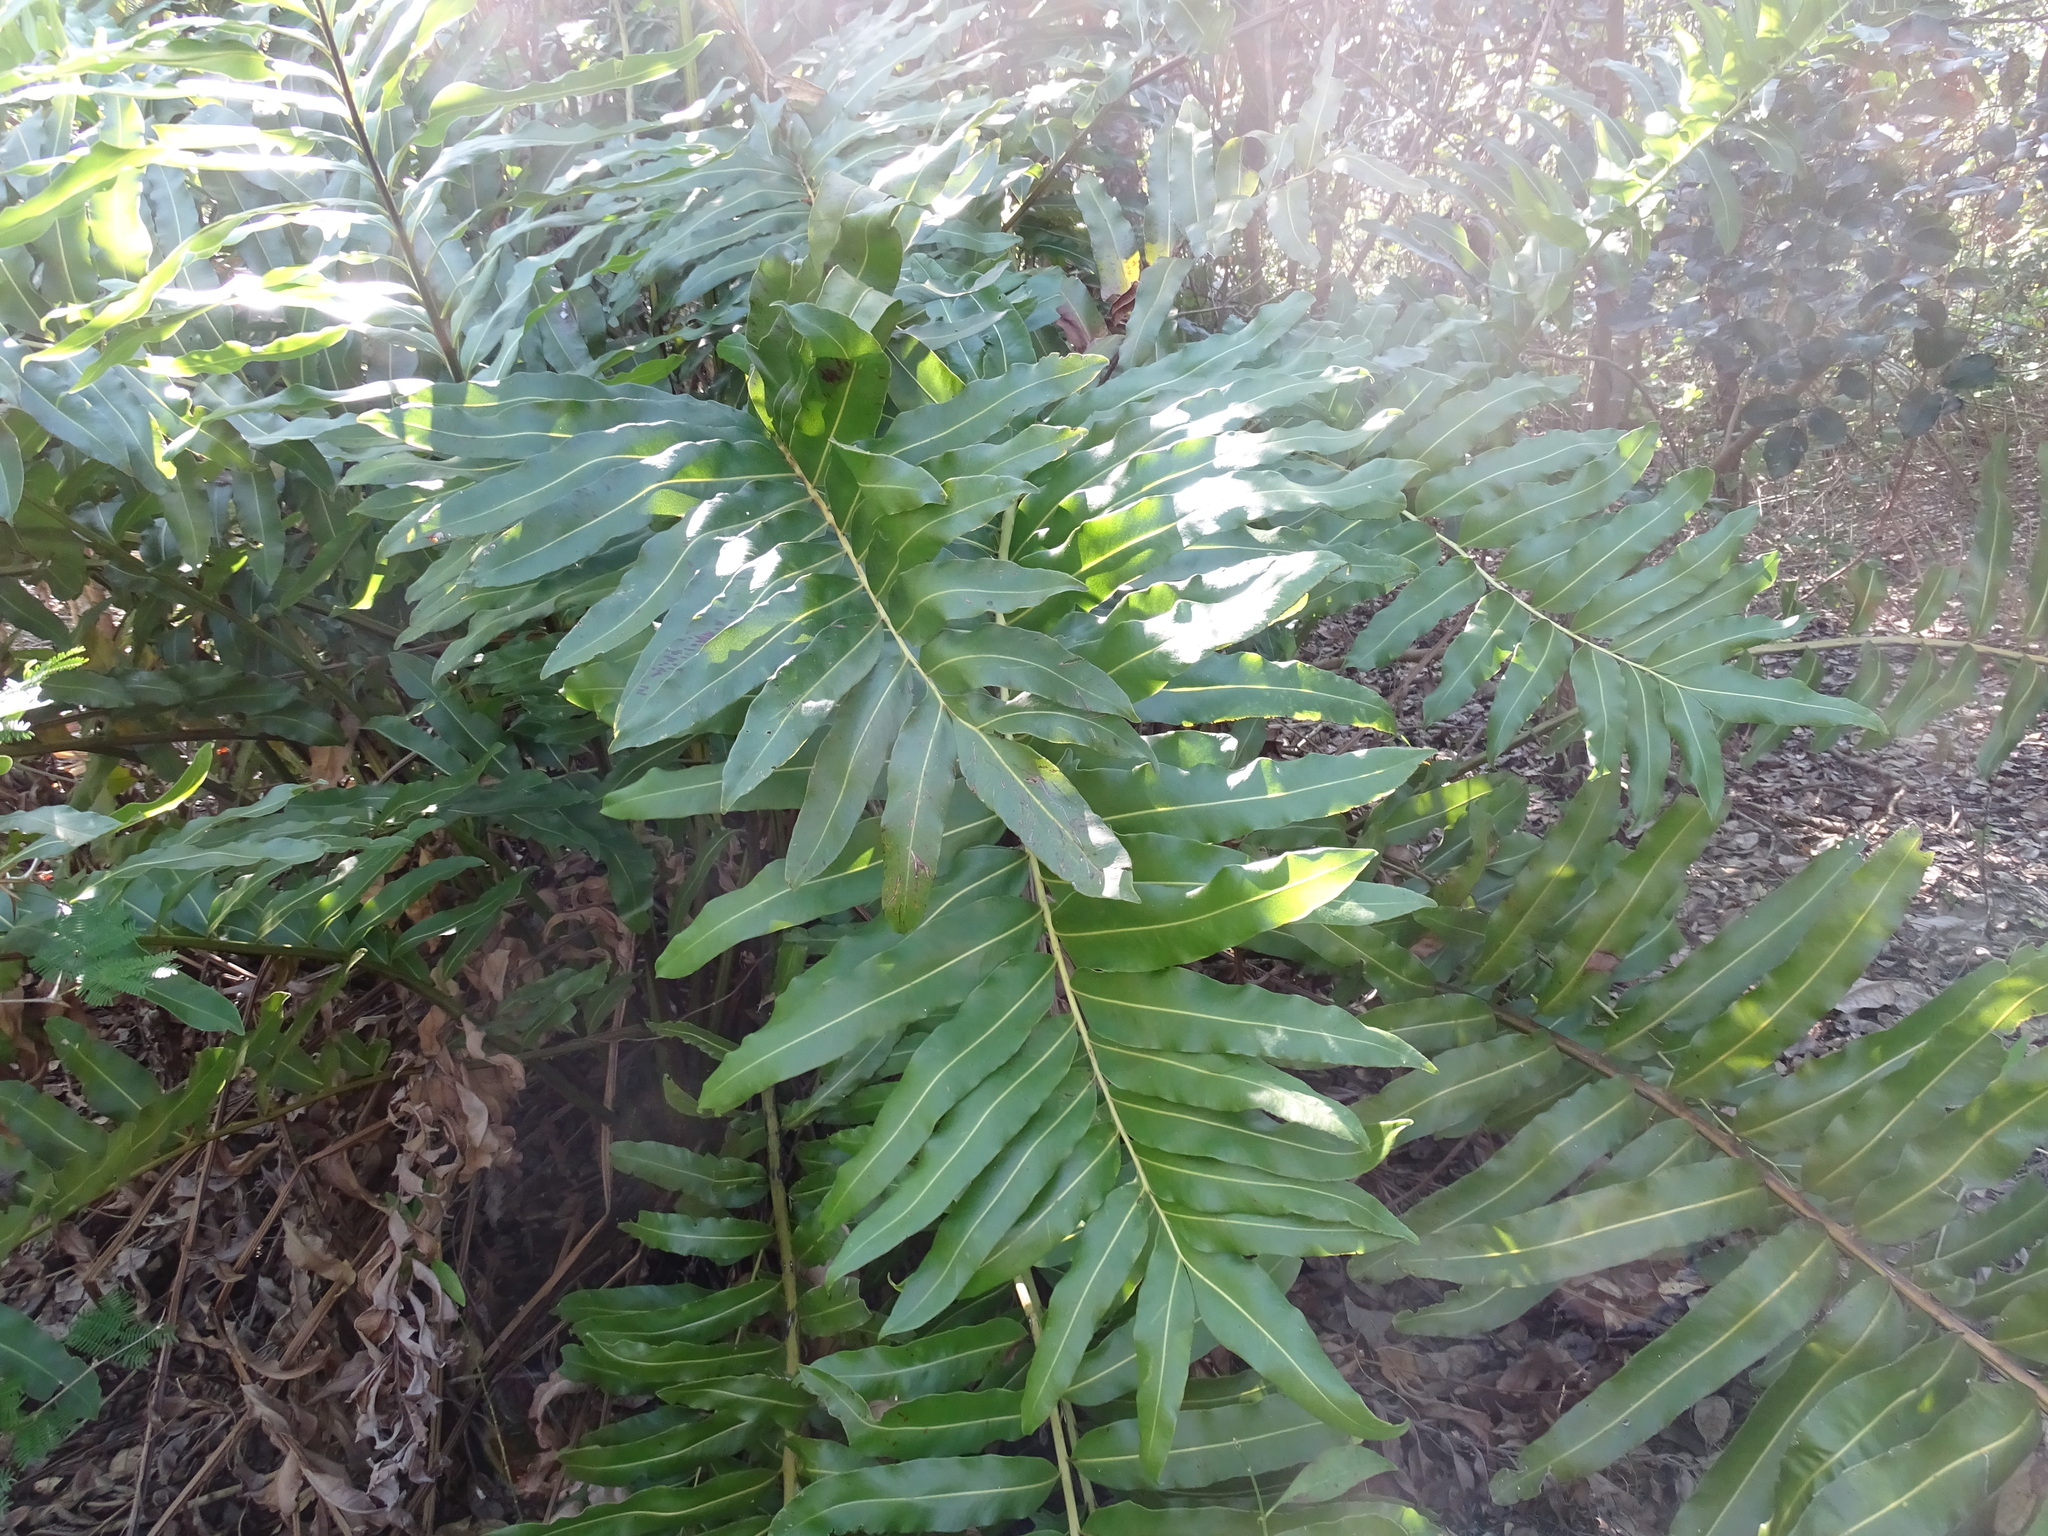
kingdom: Plantae
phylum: Tracheophyta
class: Polypodiopsida
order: Polypodiales
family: Pteridaceae
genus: Acrostichum
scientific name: Acrostichum danaeifolium
